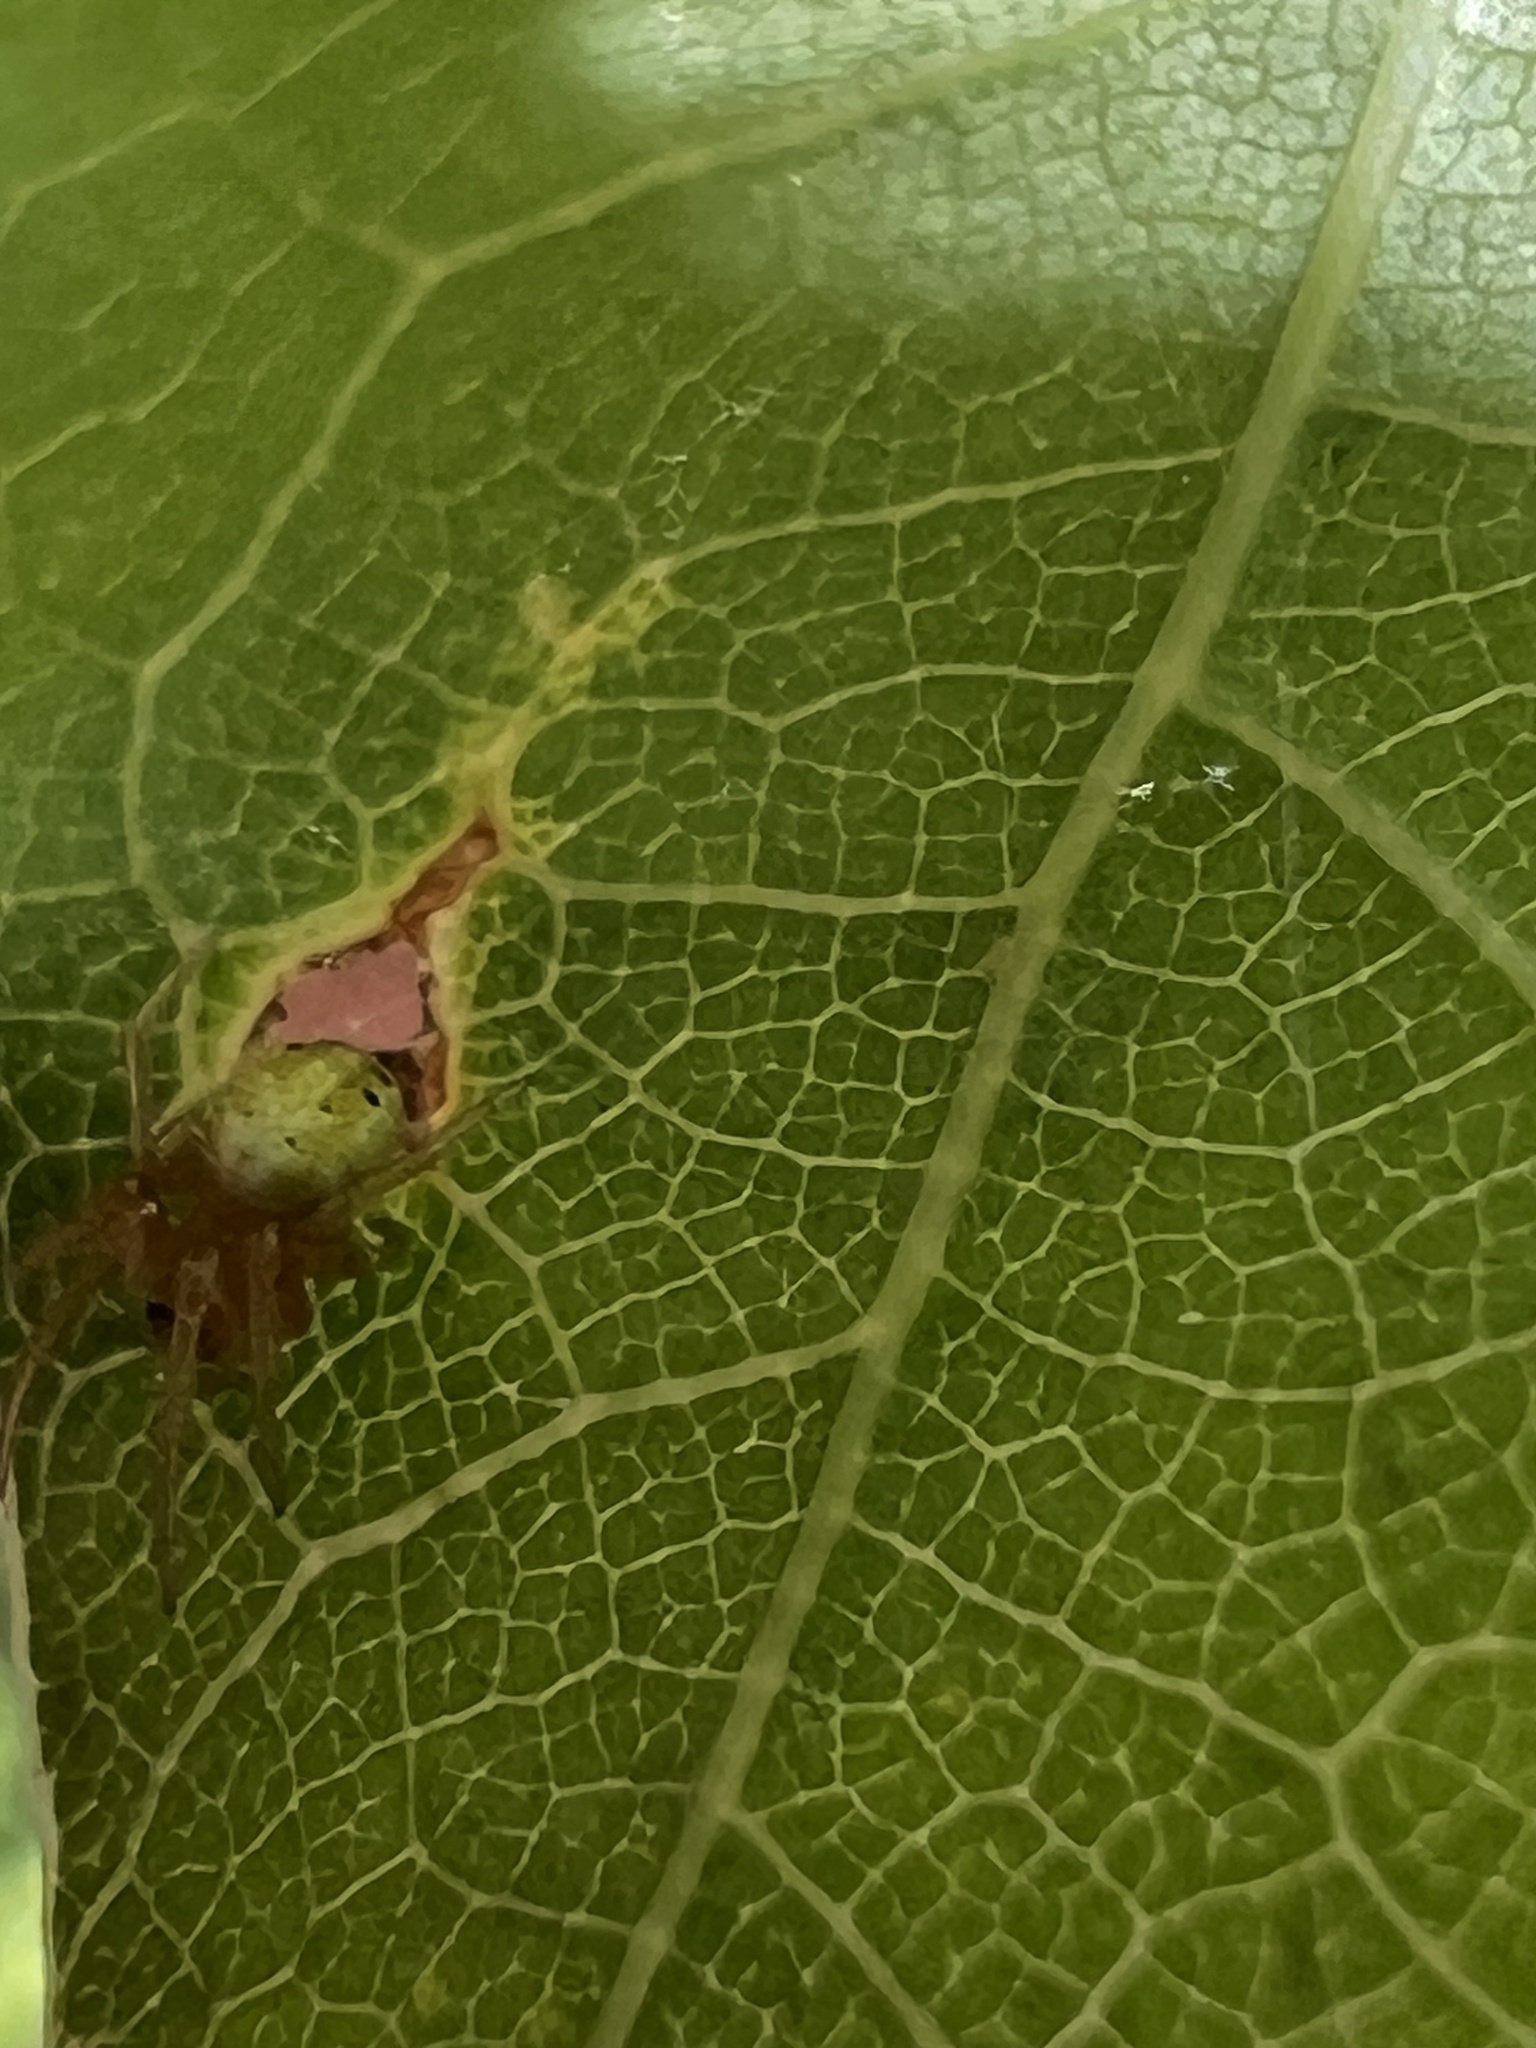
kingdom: Animalia
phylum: Arthropoda
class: Arachnida
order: Araneae
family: Araneidae
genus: Araniella
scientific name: Araniella displicata
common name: Sixspotted orb weaver
